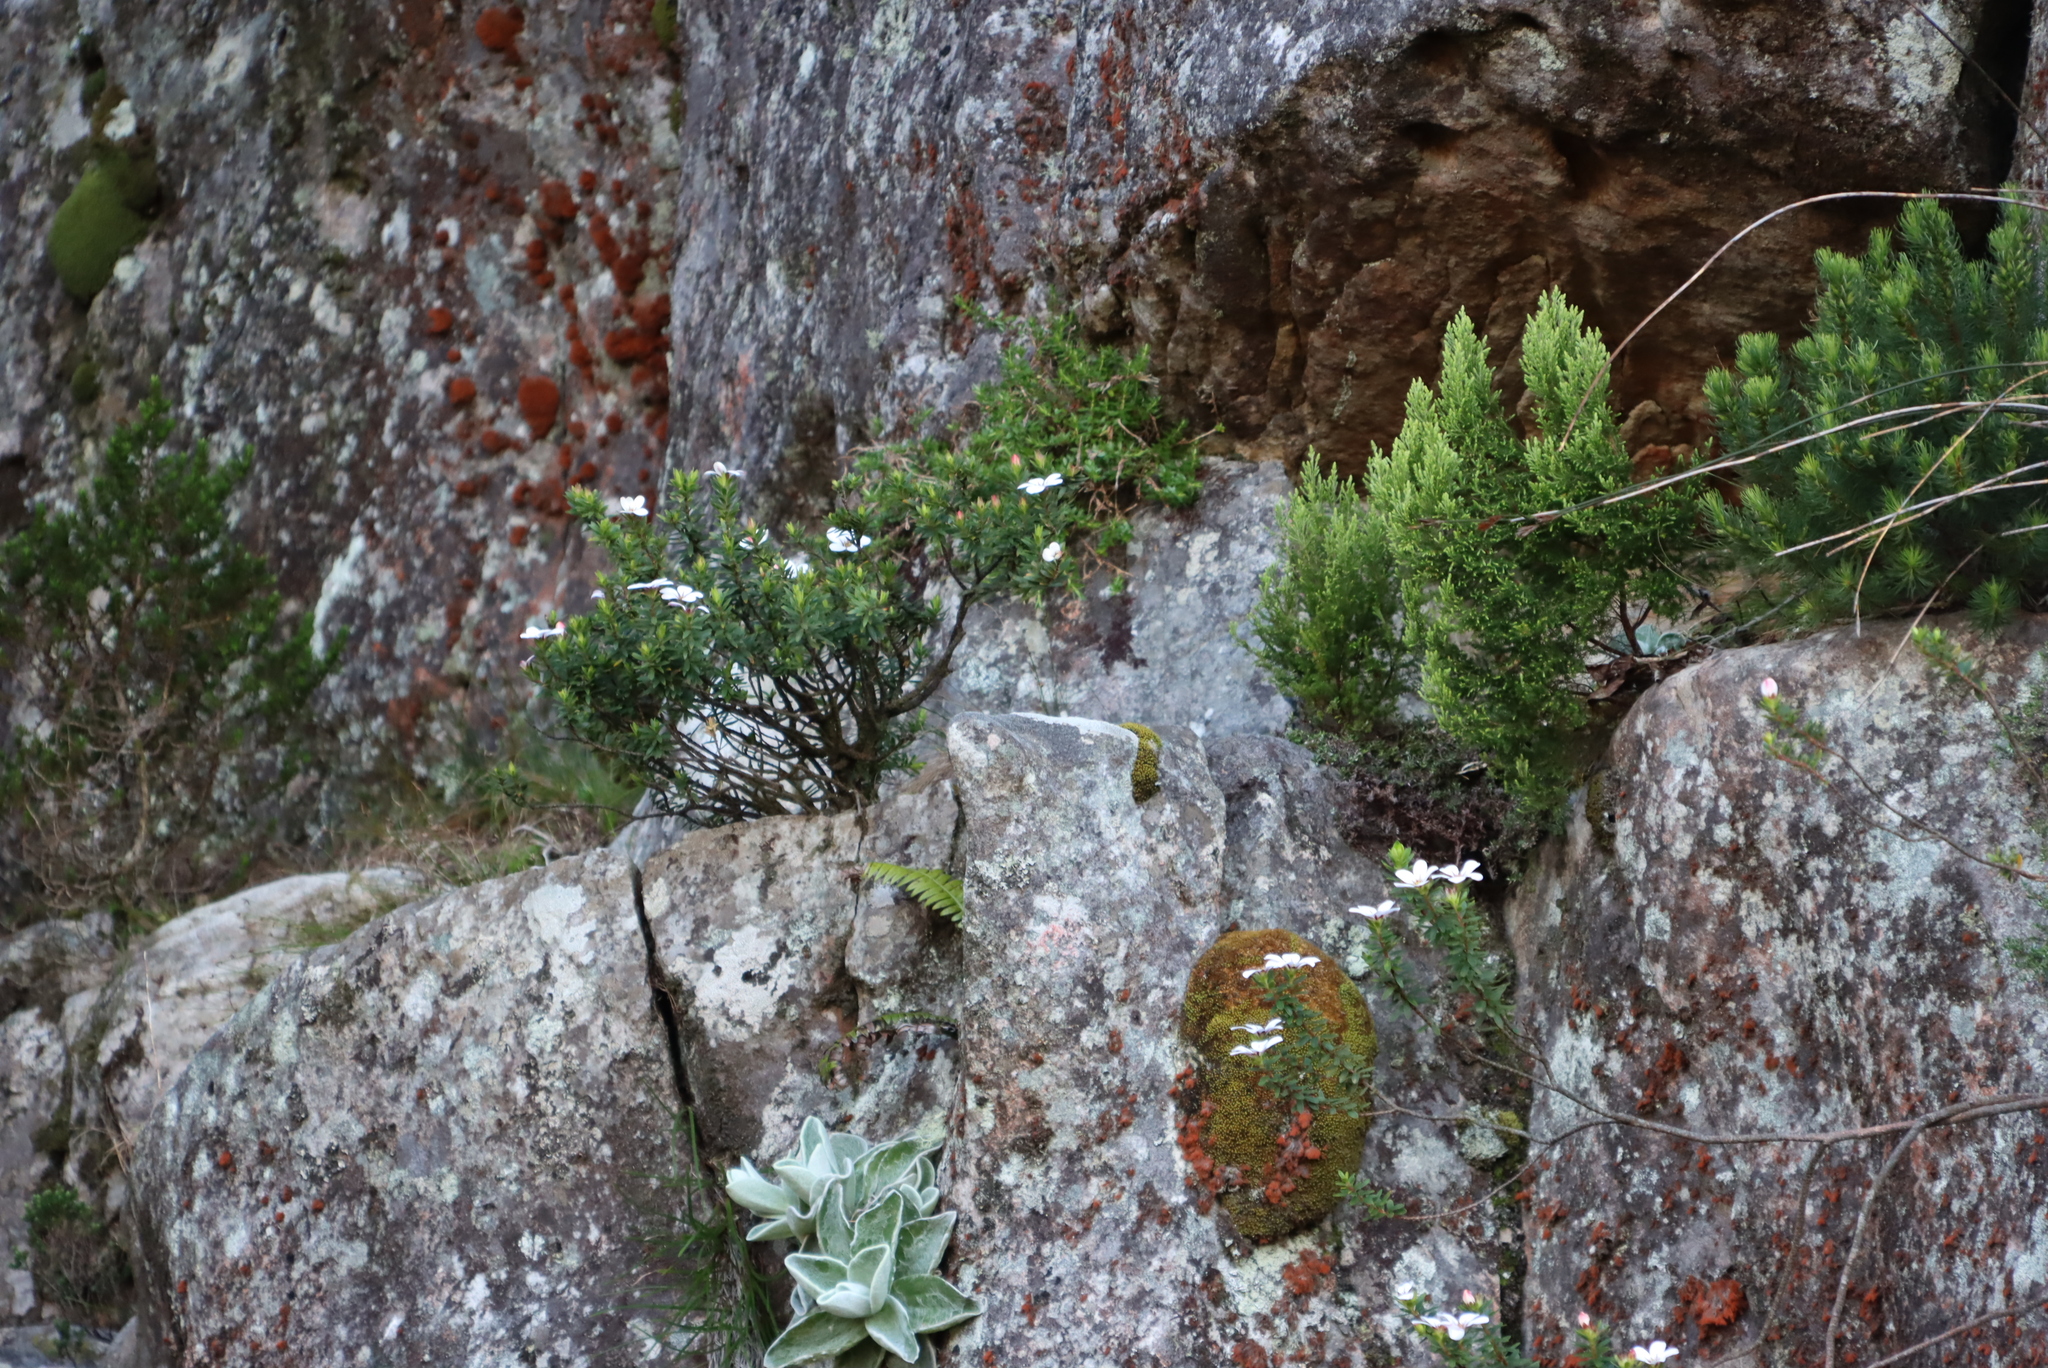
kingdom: Plantae
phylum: Tracheophyta
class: Magnoliopsida
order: Sapindales
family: Rutaceae
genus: Adenandra
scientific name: Adenandra uniflora
